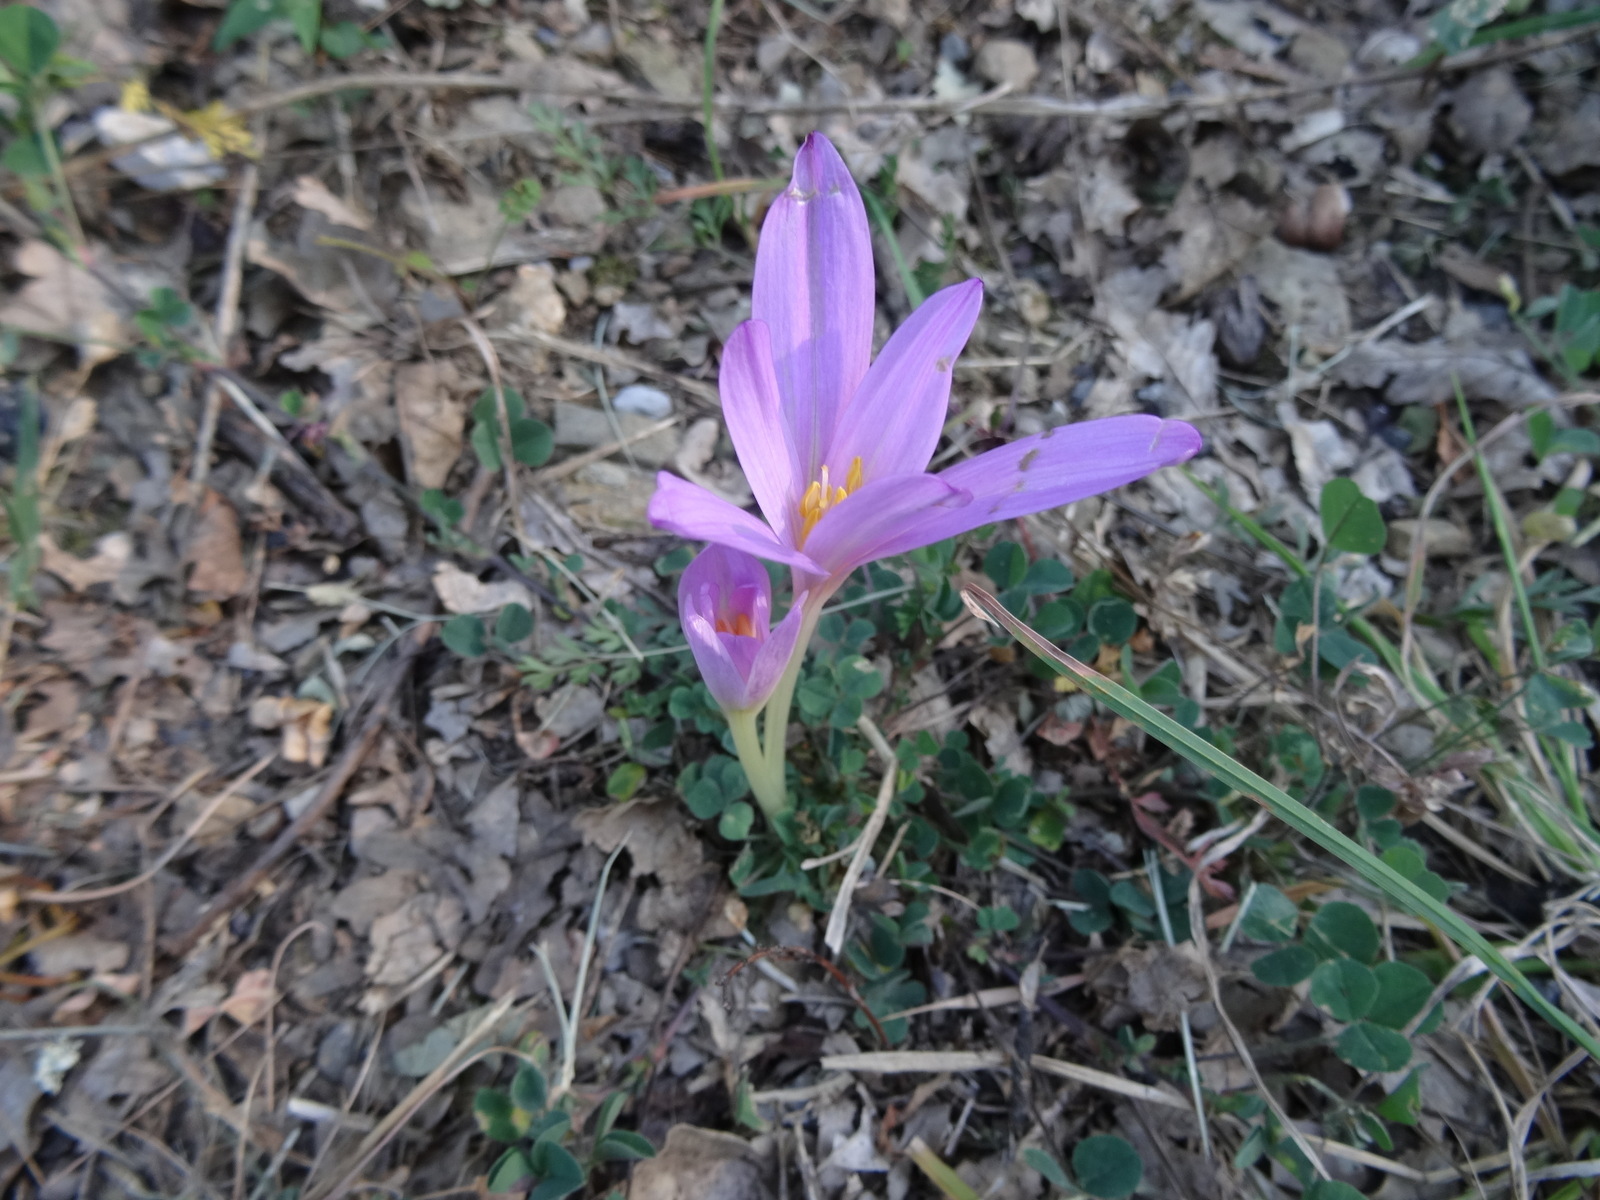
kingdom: Plantae
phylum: Tracheophyta
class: Liliopsida
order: Liliales
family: Colchicaceae
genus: Colchicum
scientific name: Colchicum autumnale
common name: Autumn crocus
